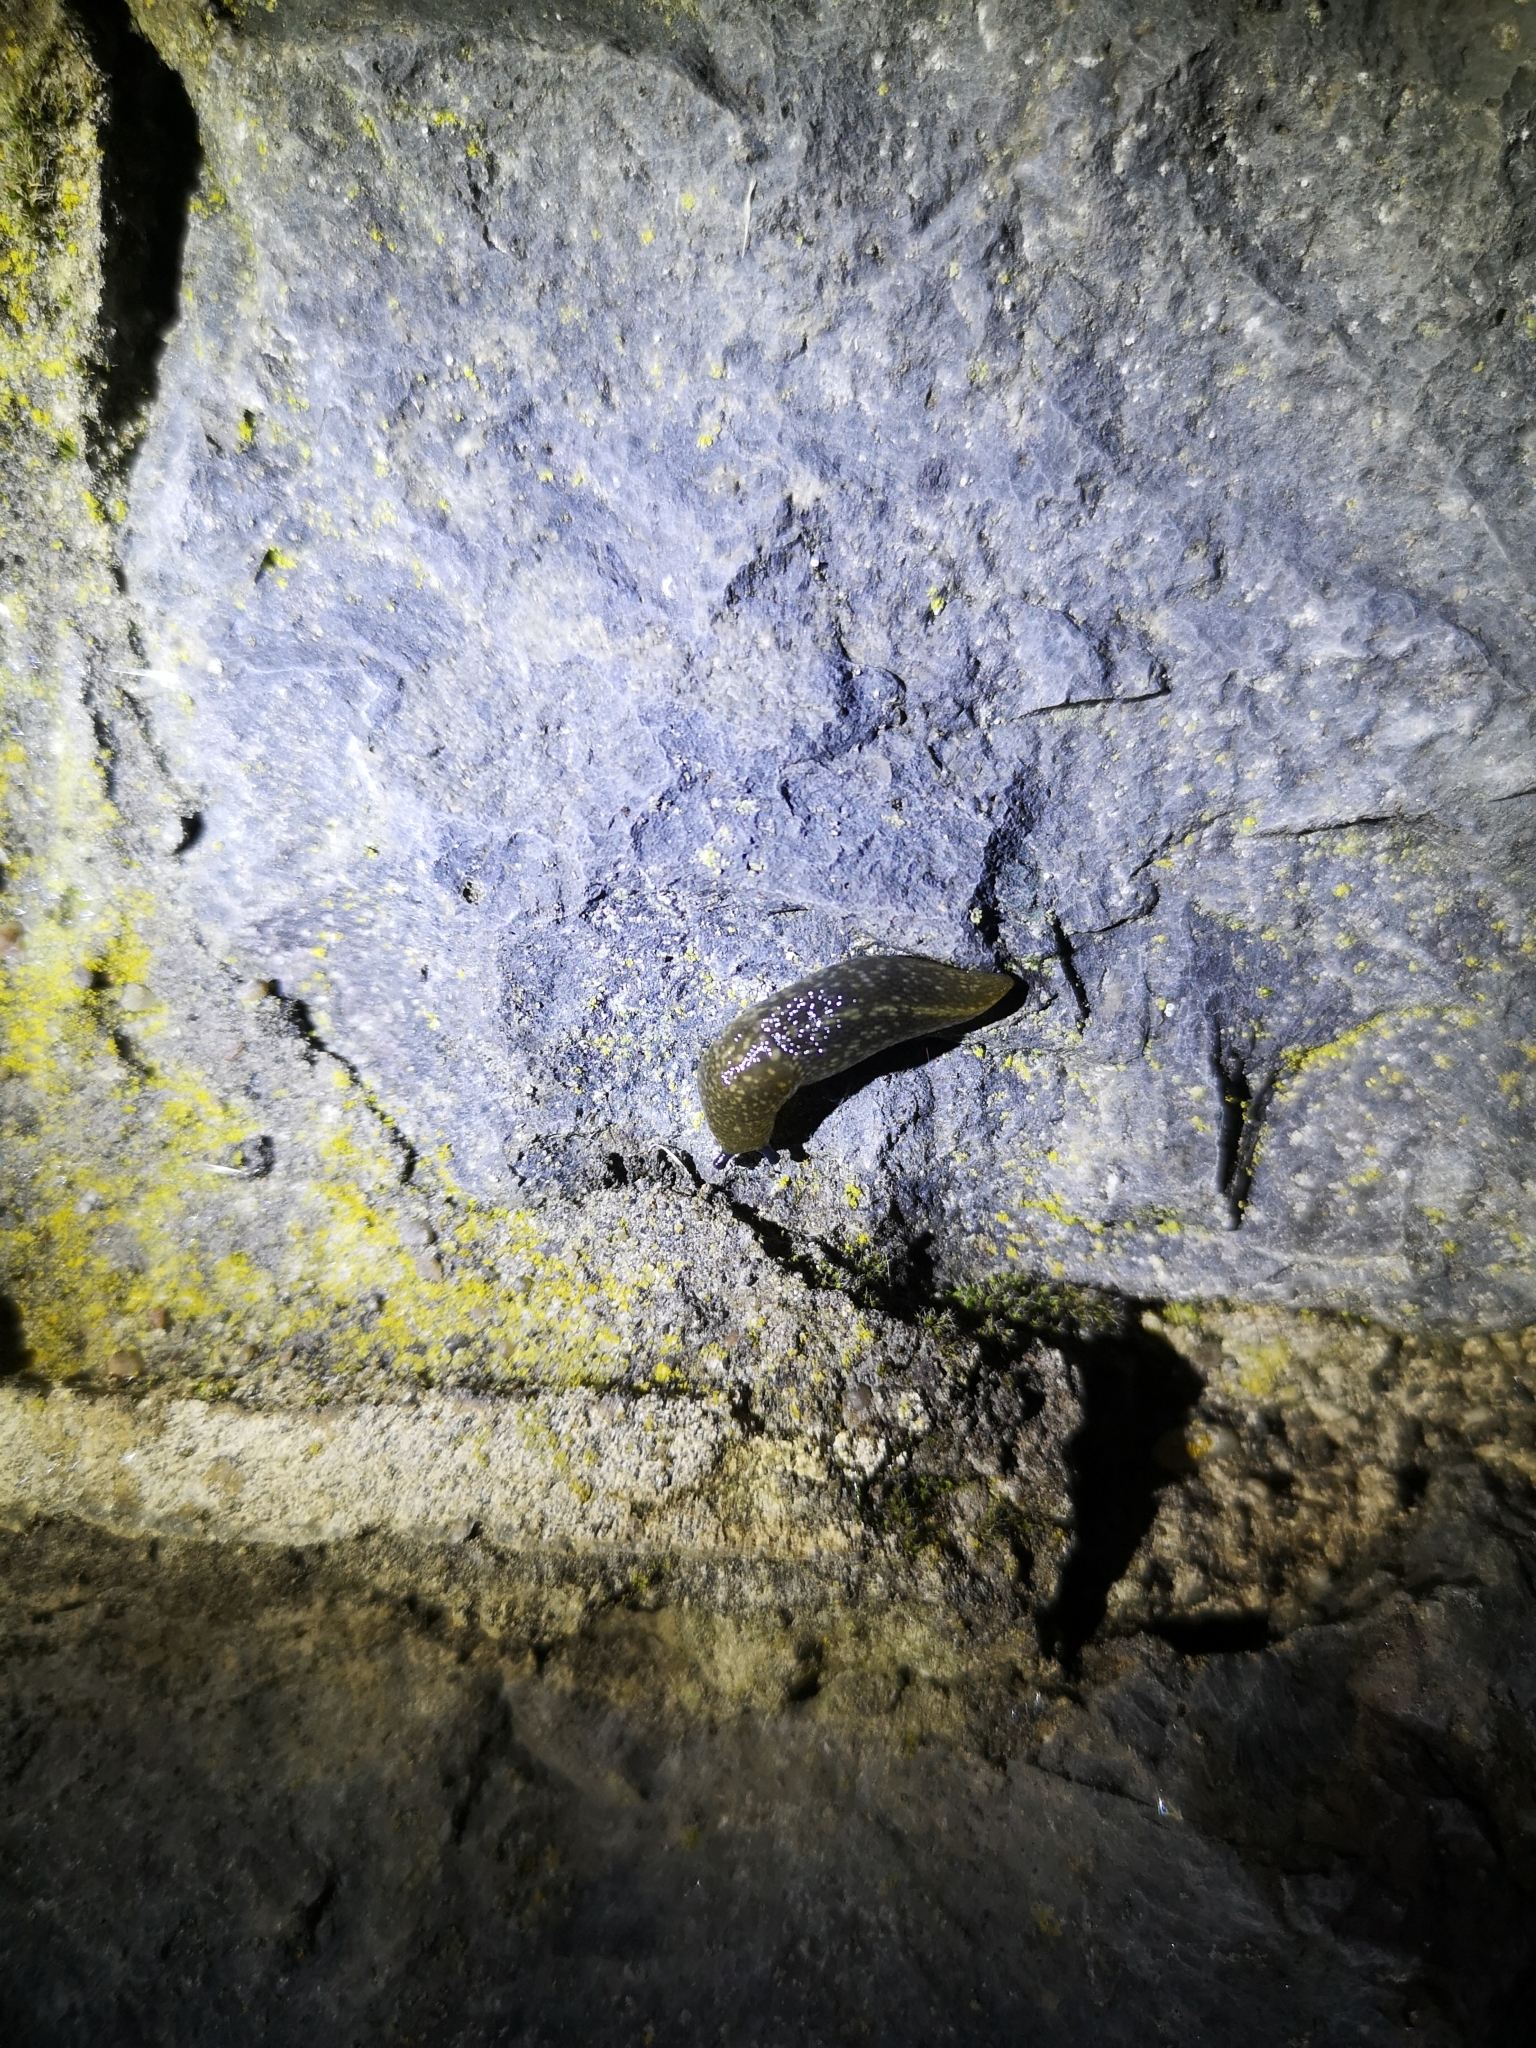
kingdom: Animalia
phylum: Mollusca
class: Gastropoda
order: Stylommatophora
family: Limacidae
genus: Limacus
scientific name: Limacus flavus
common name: Yellow gardenslug
